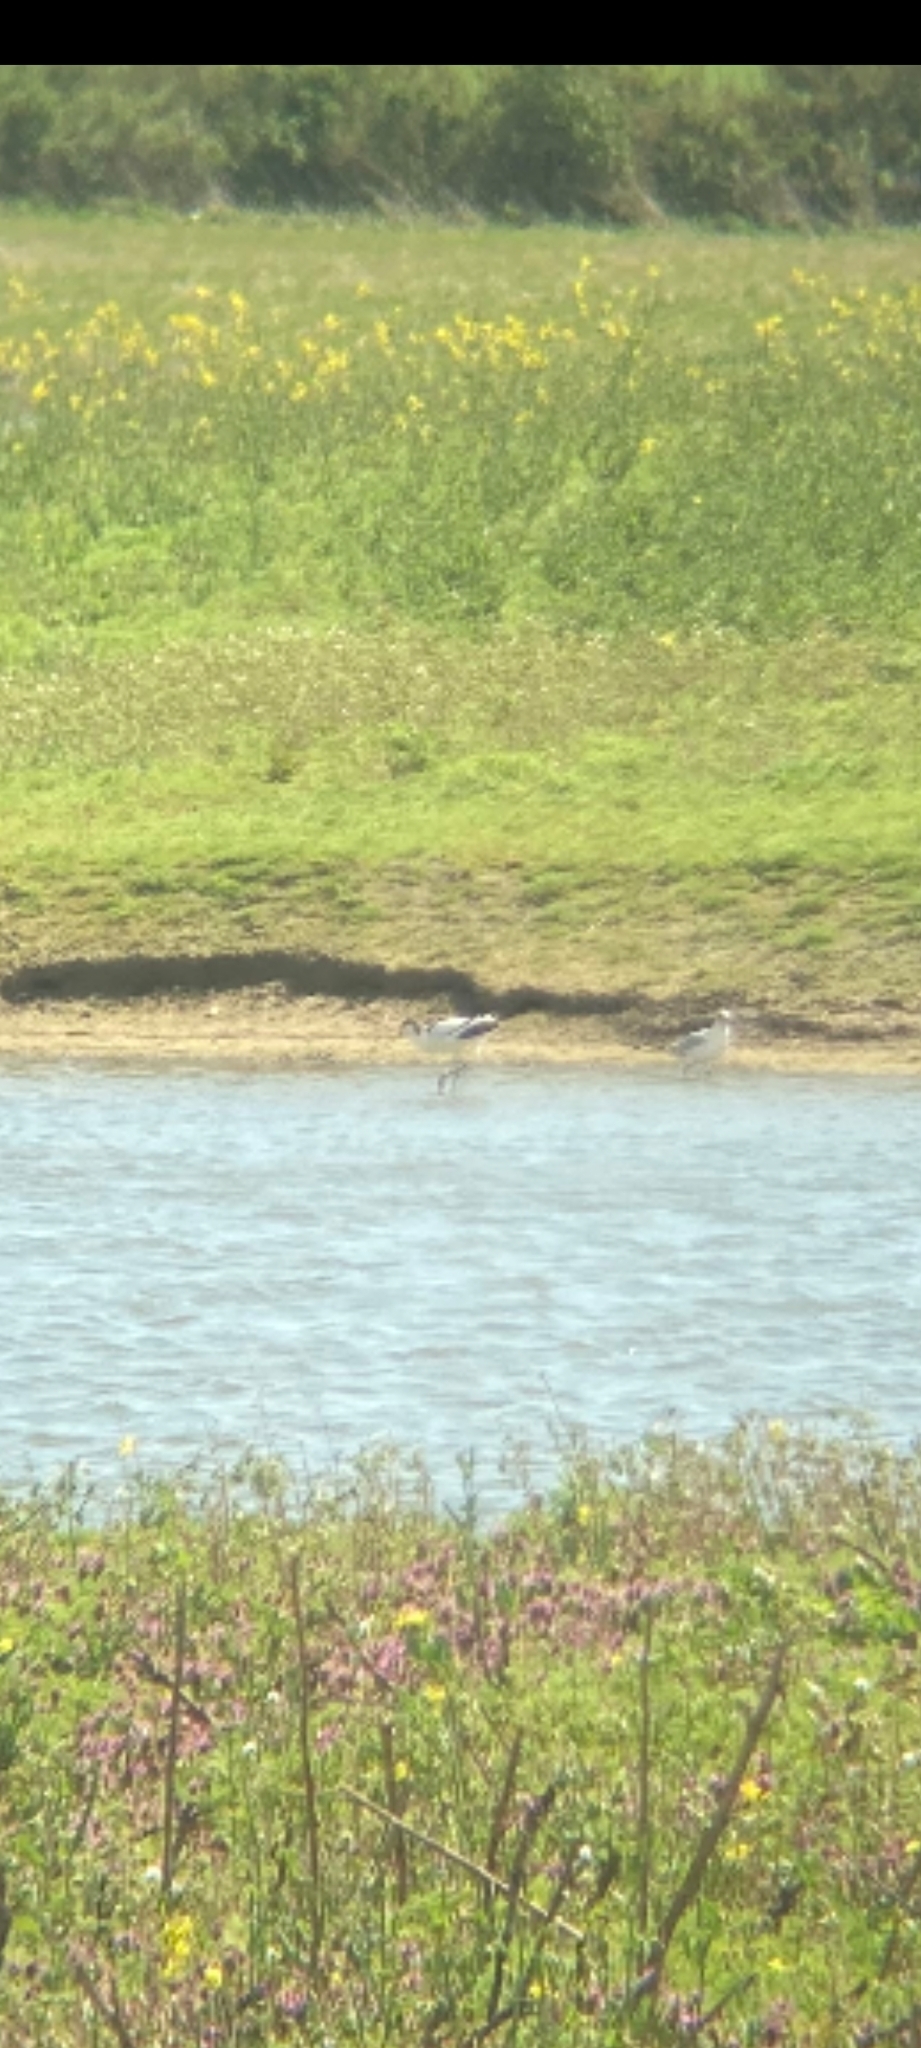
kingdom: Animalia
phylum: Chordata
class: Aves
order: Charadriiformes
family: Recurvirostridae
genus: Recurvirostra
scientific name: Recurvirostra avosetta
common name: Pied avocet
